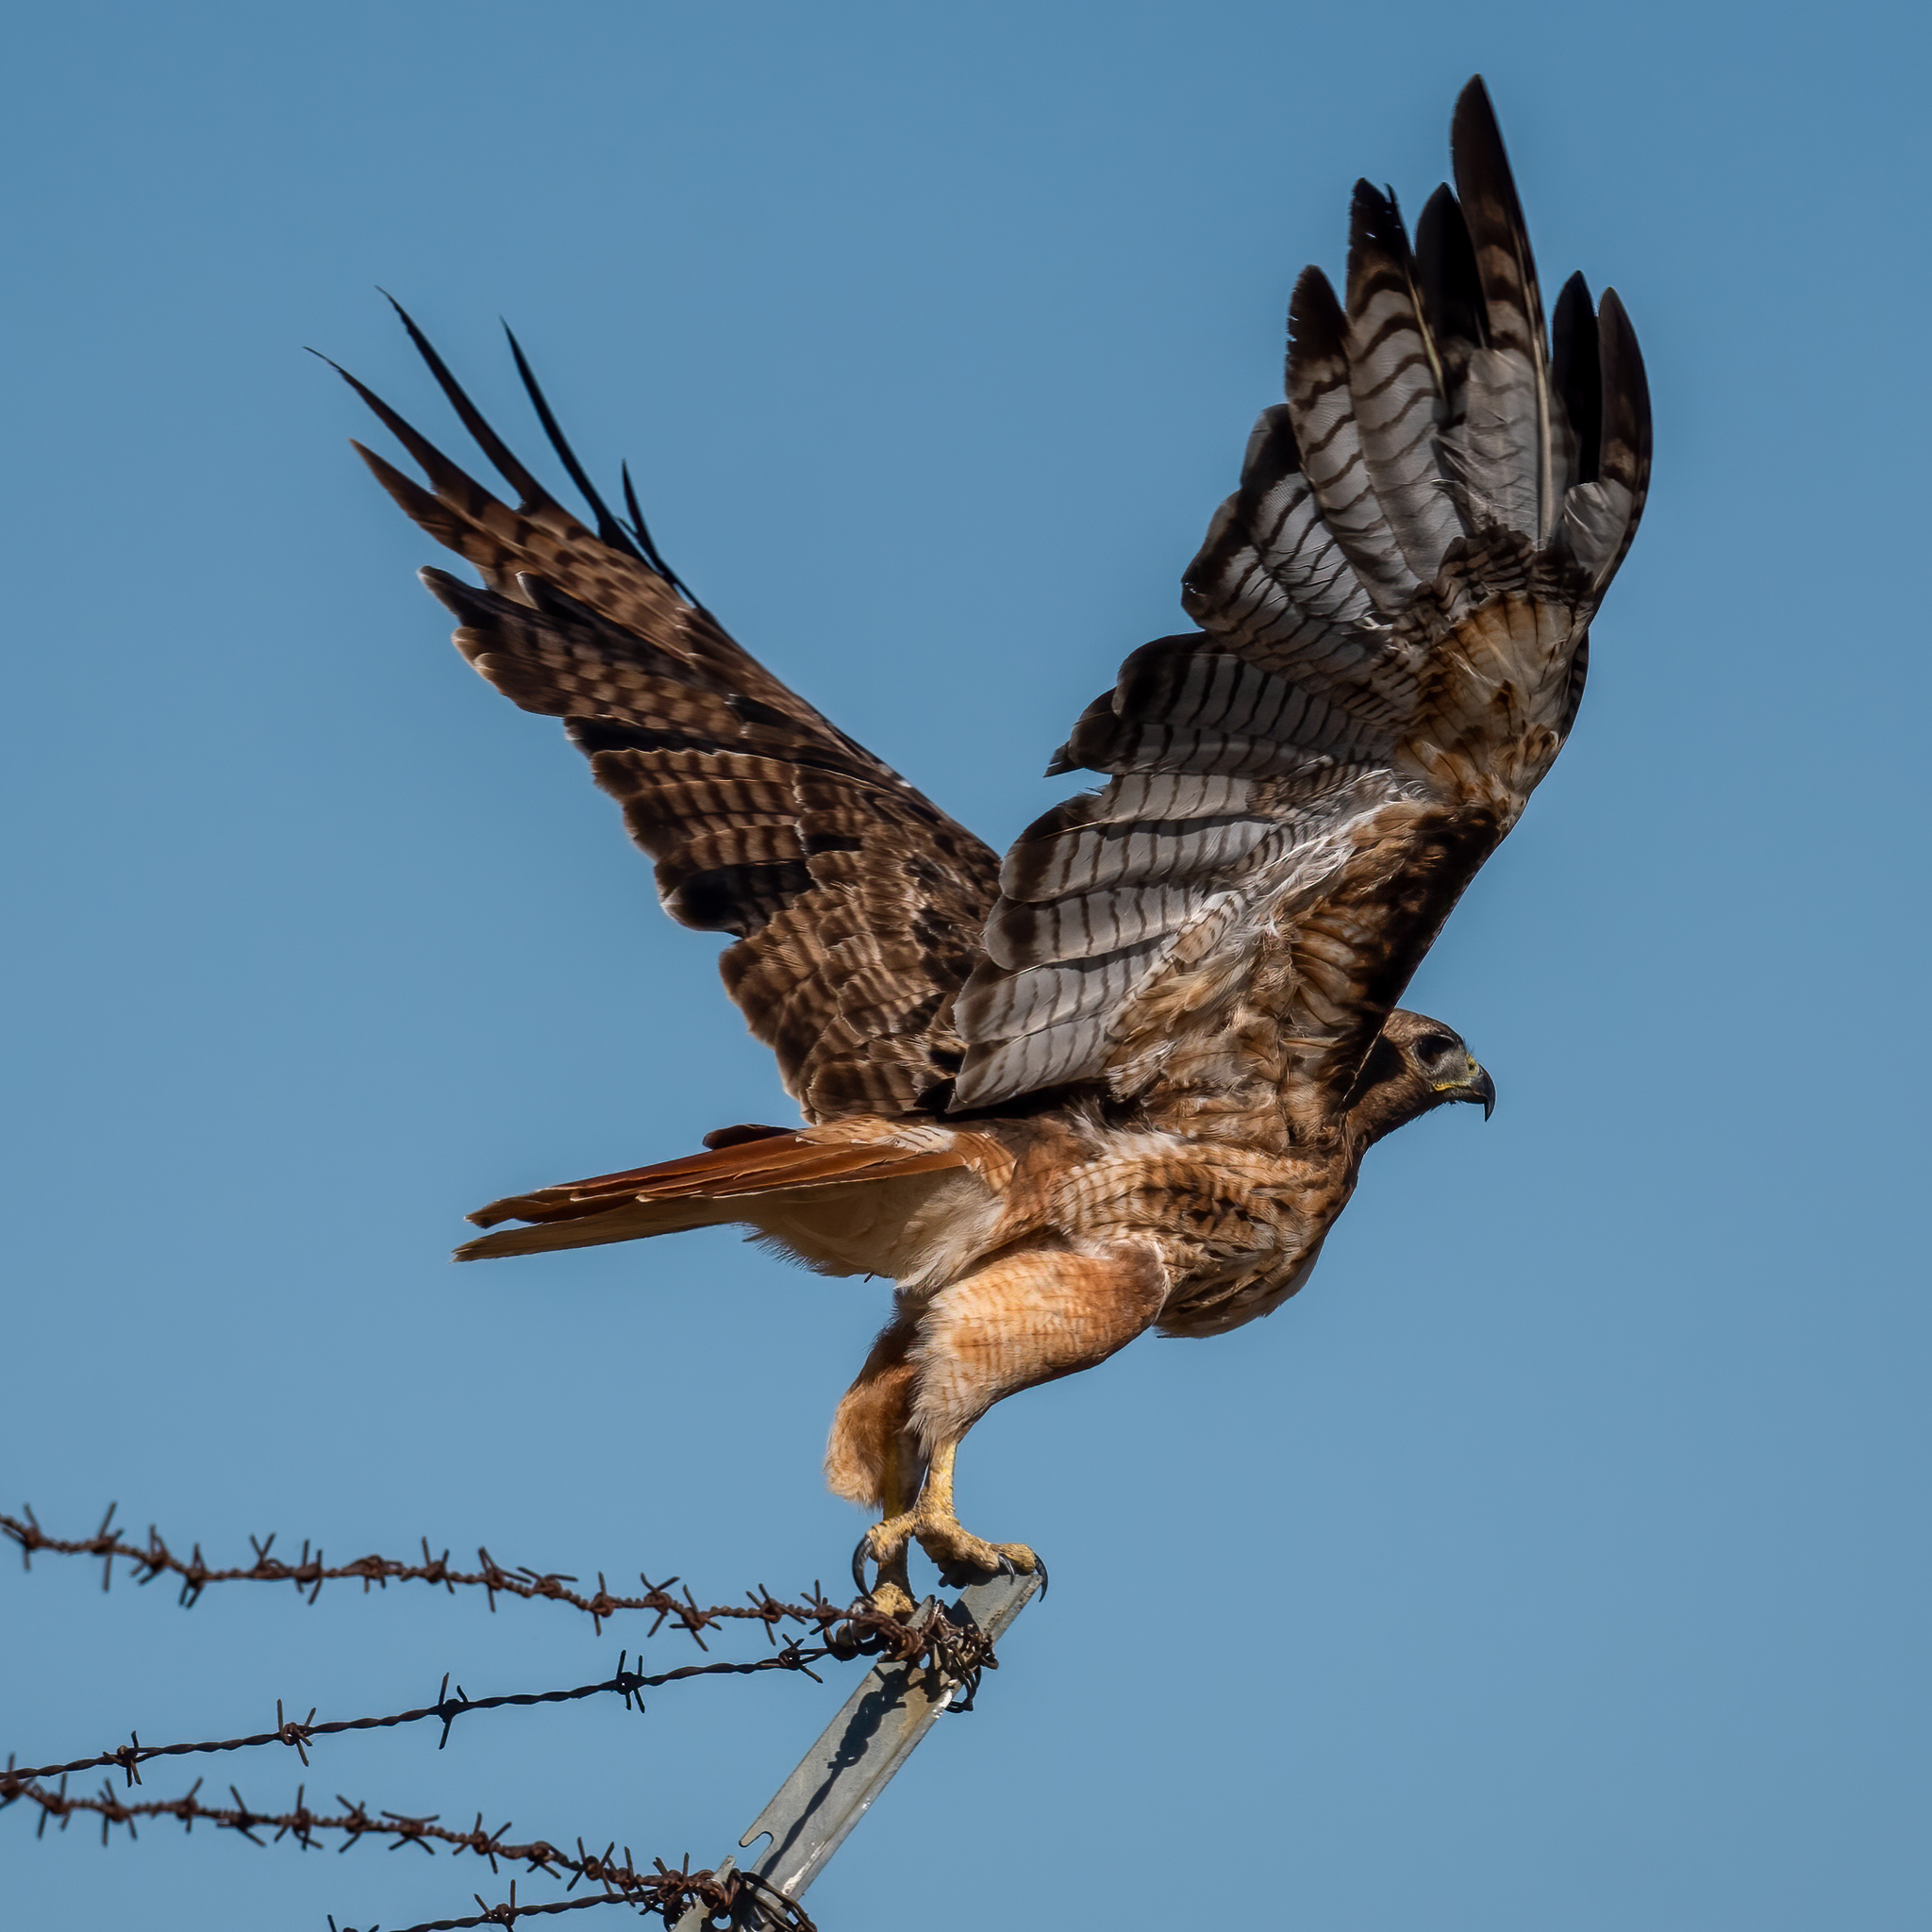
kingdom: Animalia
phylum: Chordata
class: Aves
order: Accipitriformes
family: Accipitridae
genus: Buteo
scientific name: Buteo jamaicensis
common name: Red-tailed hawk
